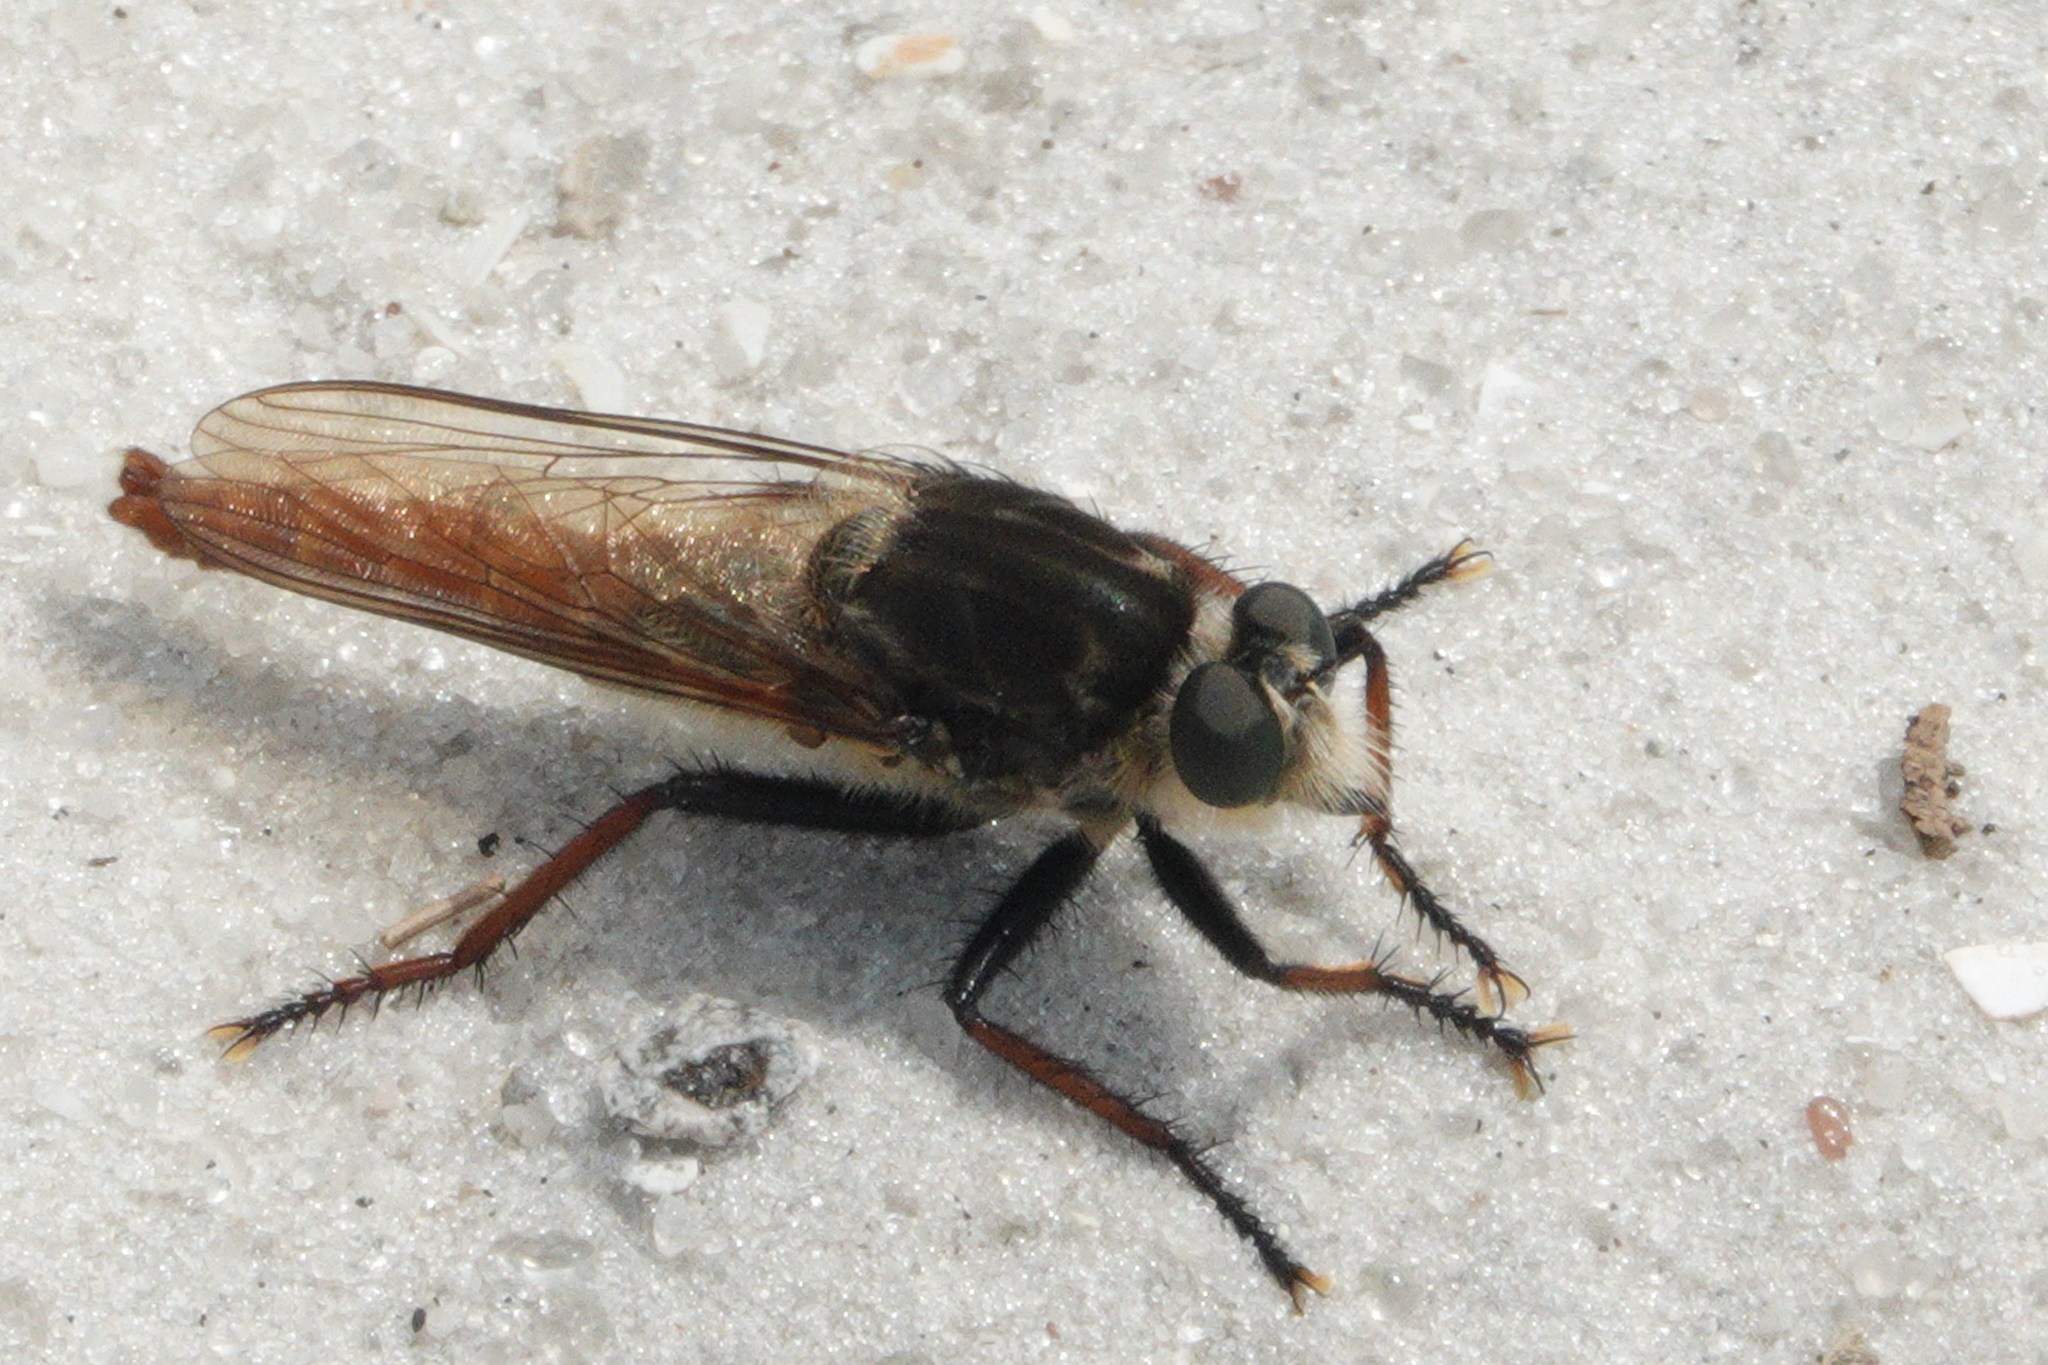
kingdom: Animalia
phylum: Arthropoda
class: Insecta
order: Diptera
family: Asilidae
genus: Proctacanthus
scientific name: Proctacanthus fulviventris
